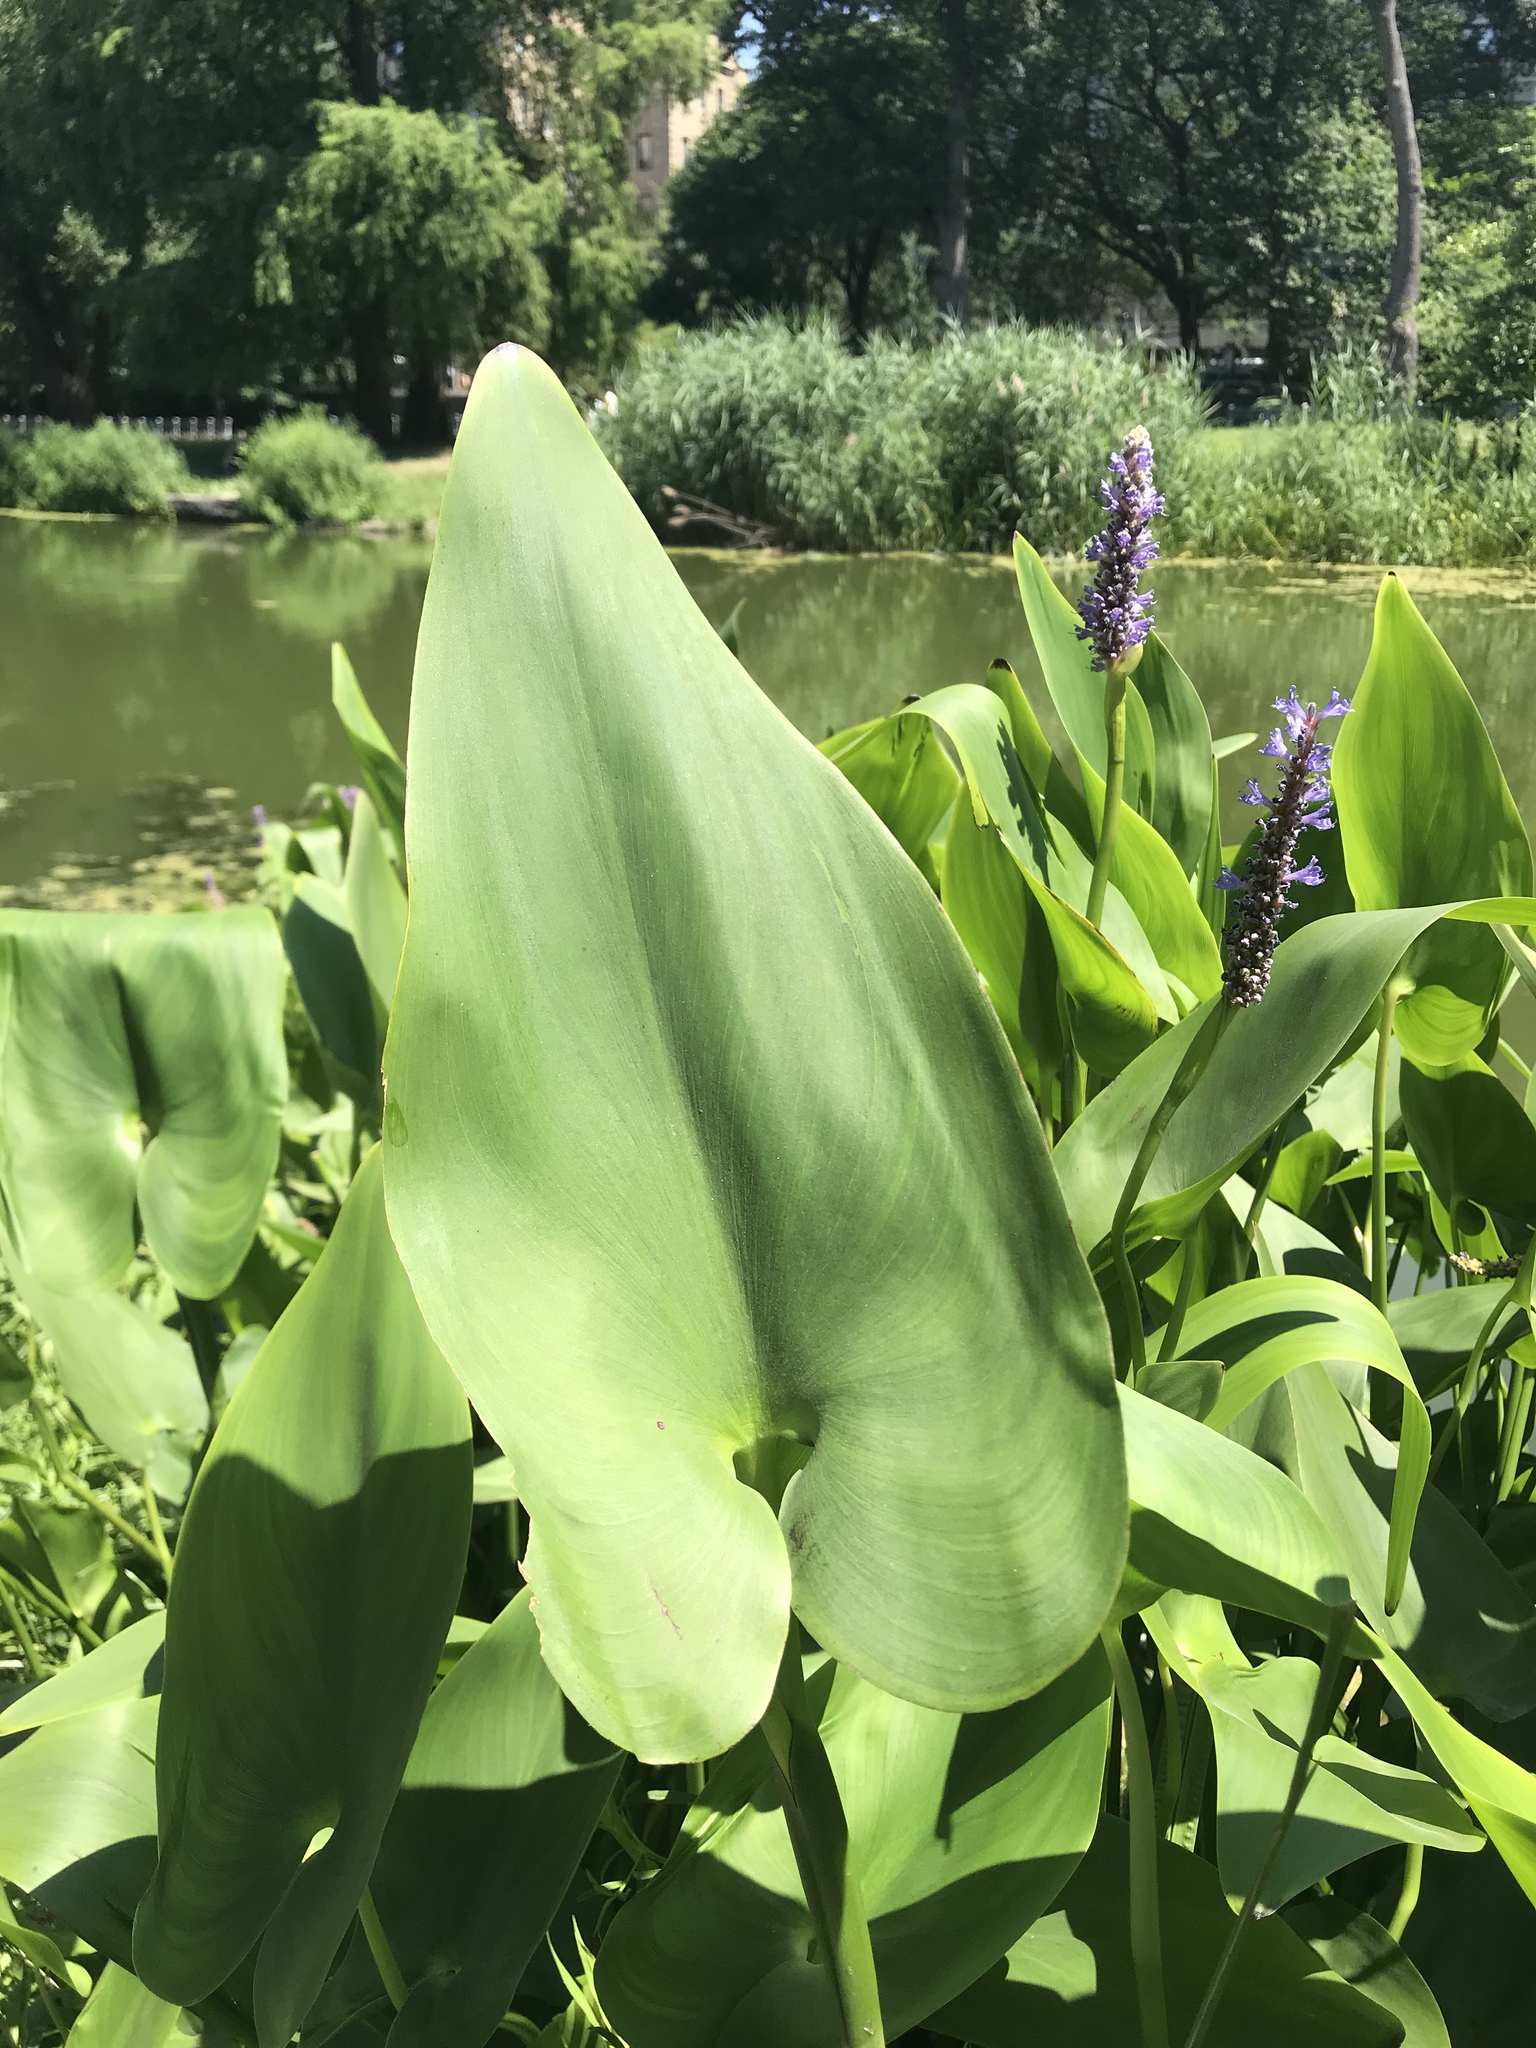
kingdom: Plantae
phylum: Tracheophyta
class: Liliopsida
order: Commelinales
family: Pontederiaceae
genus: Pontederia
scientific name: Pontederia cordata
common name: Pickerelweed
